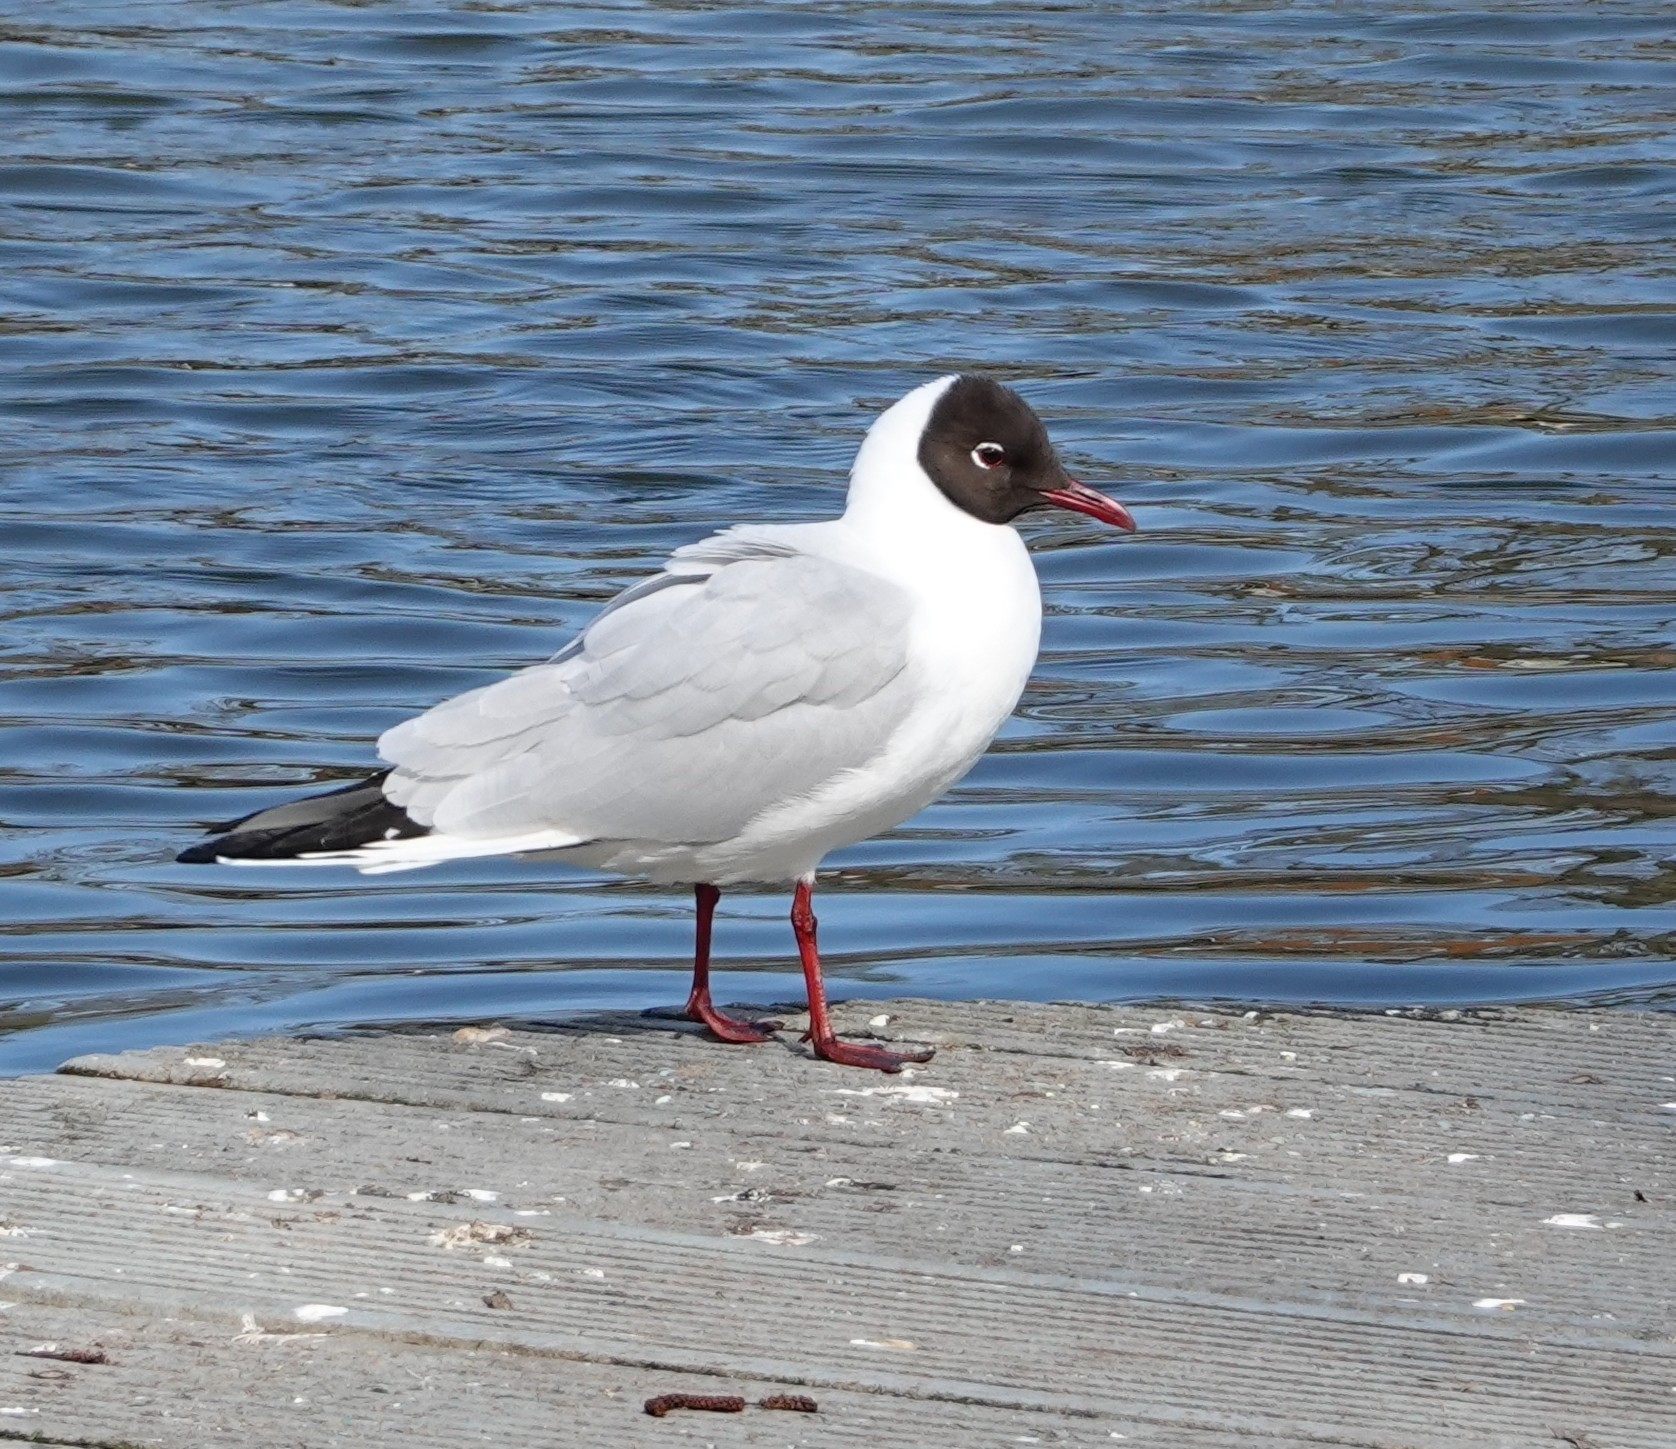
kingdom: Animalia
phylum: Chordata
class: Aves
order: Charadriiformes
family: Laridae
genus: Chroicocephalus
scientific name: Chroicocephalus ridibundus
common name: Black-headed gull
